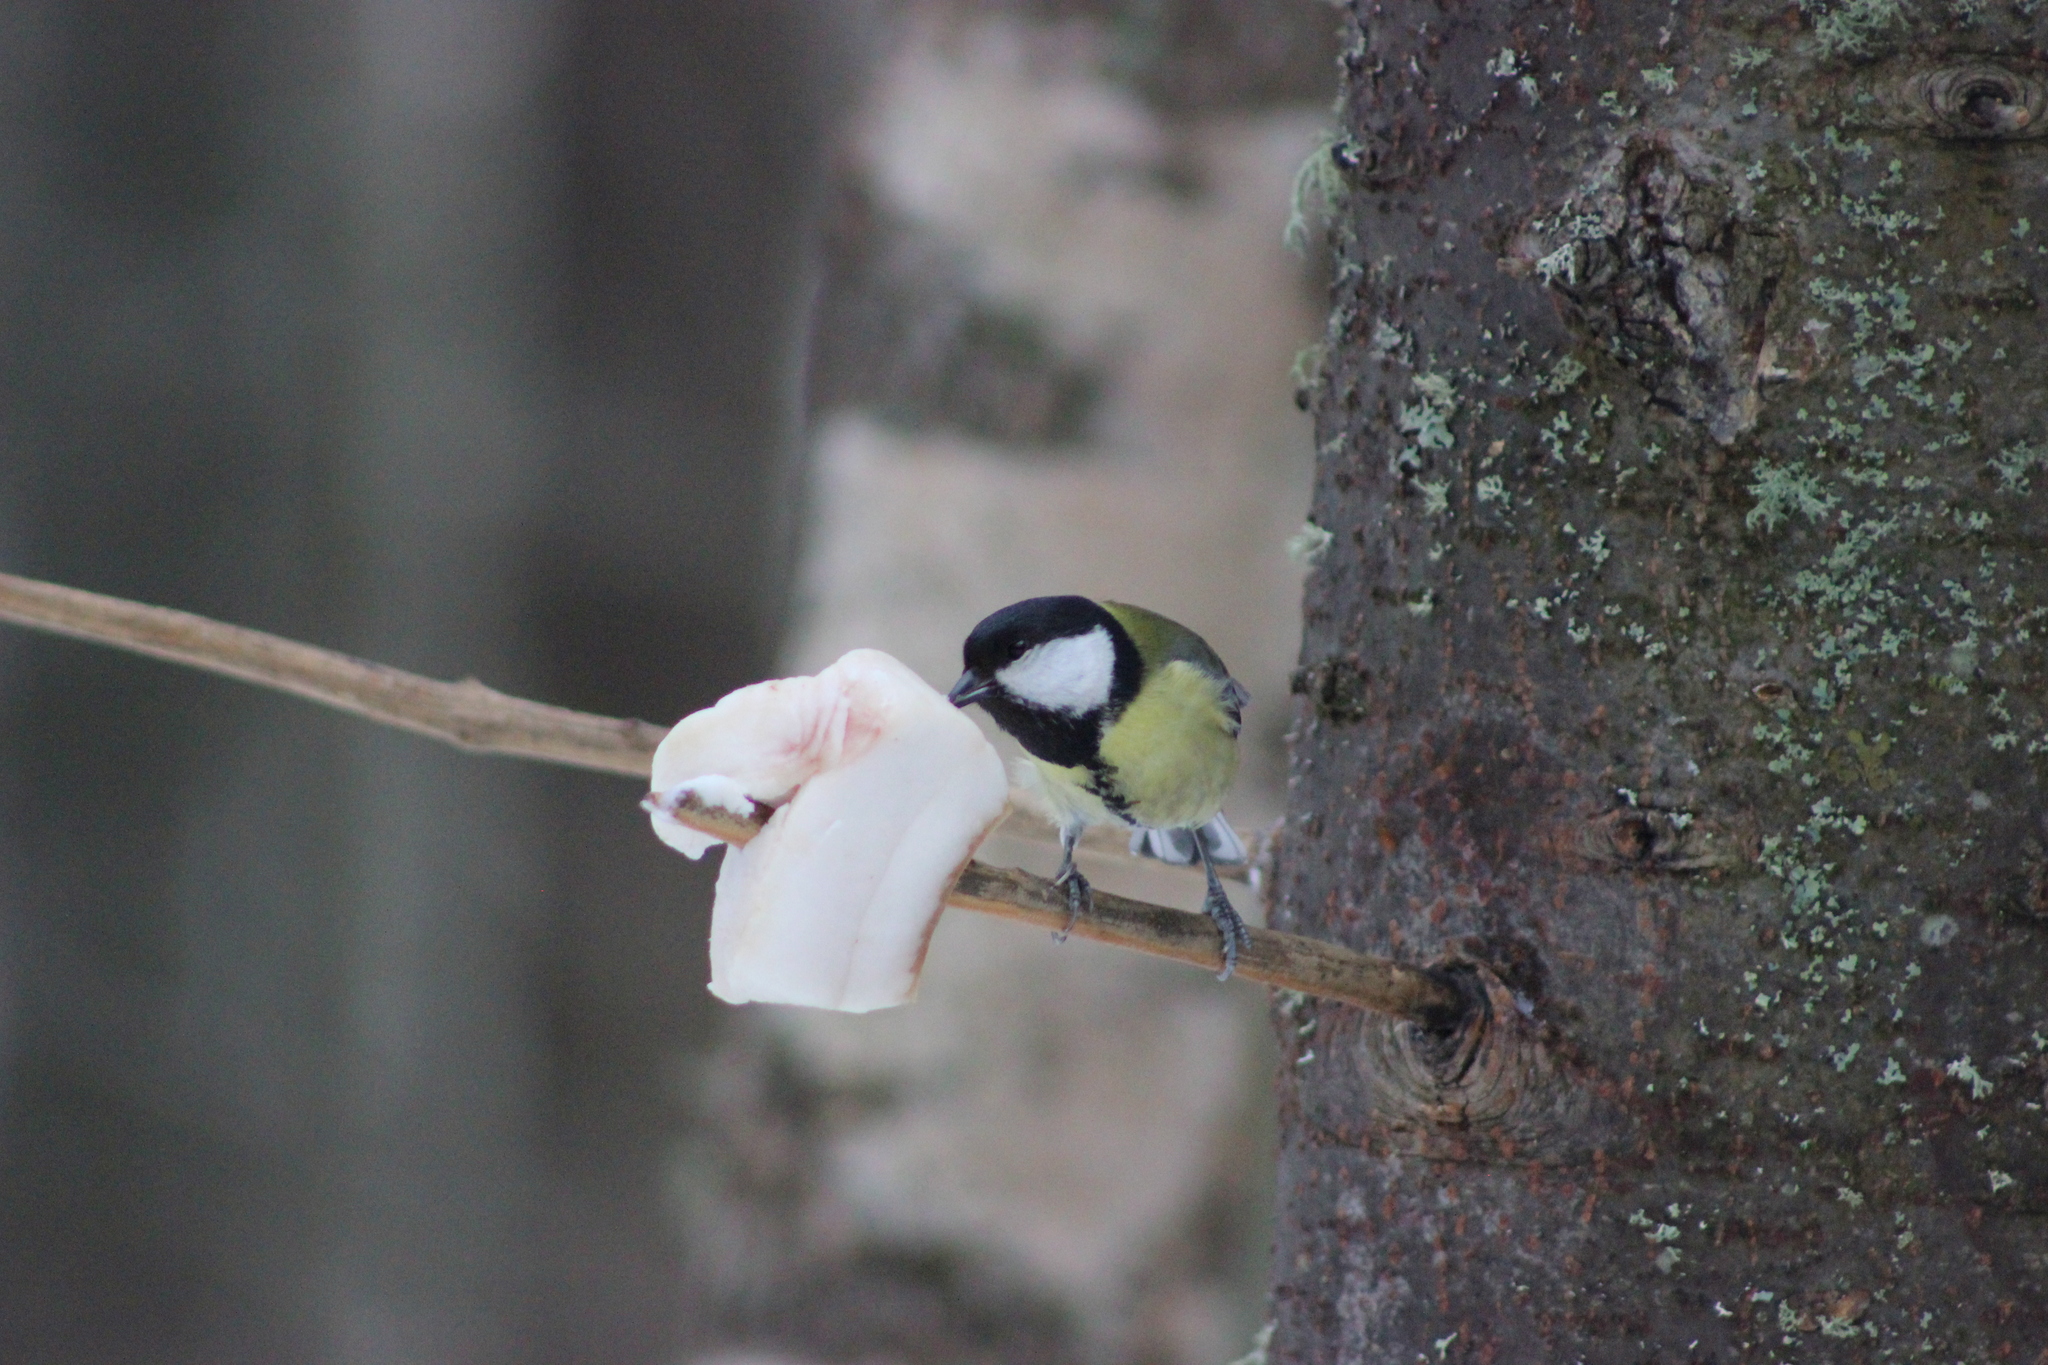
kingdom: Animalia
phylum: Chordata
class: Aves
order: Passeriformes
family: Paridae
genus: Parus
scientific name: Parus major
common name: Great tit
